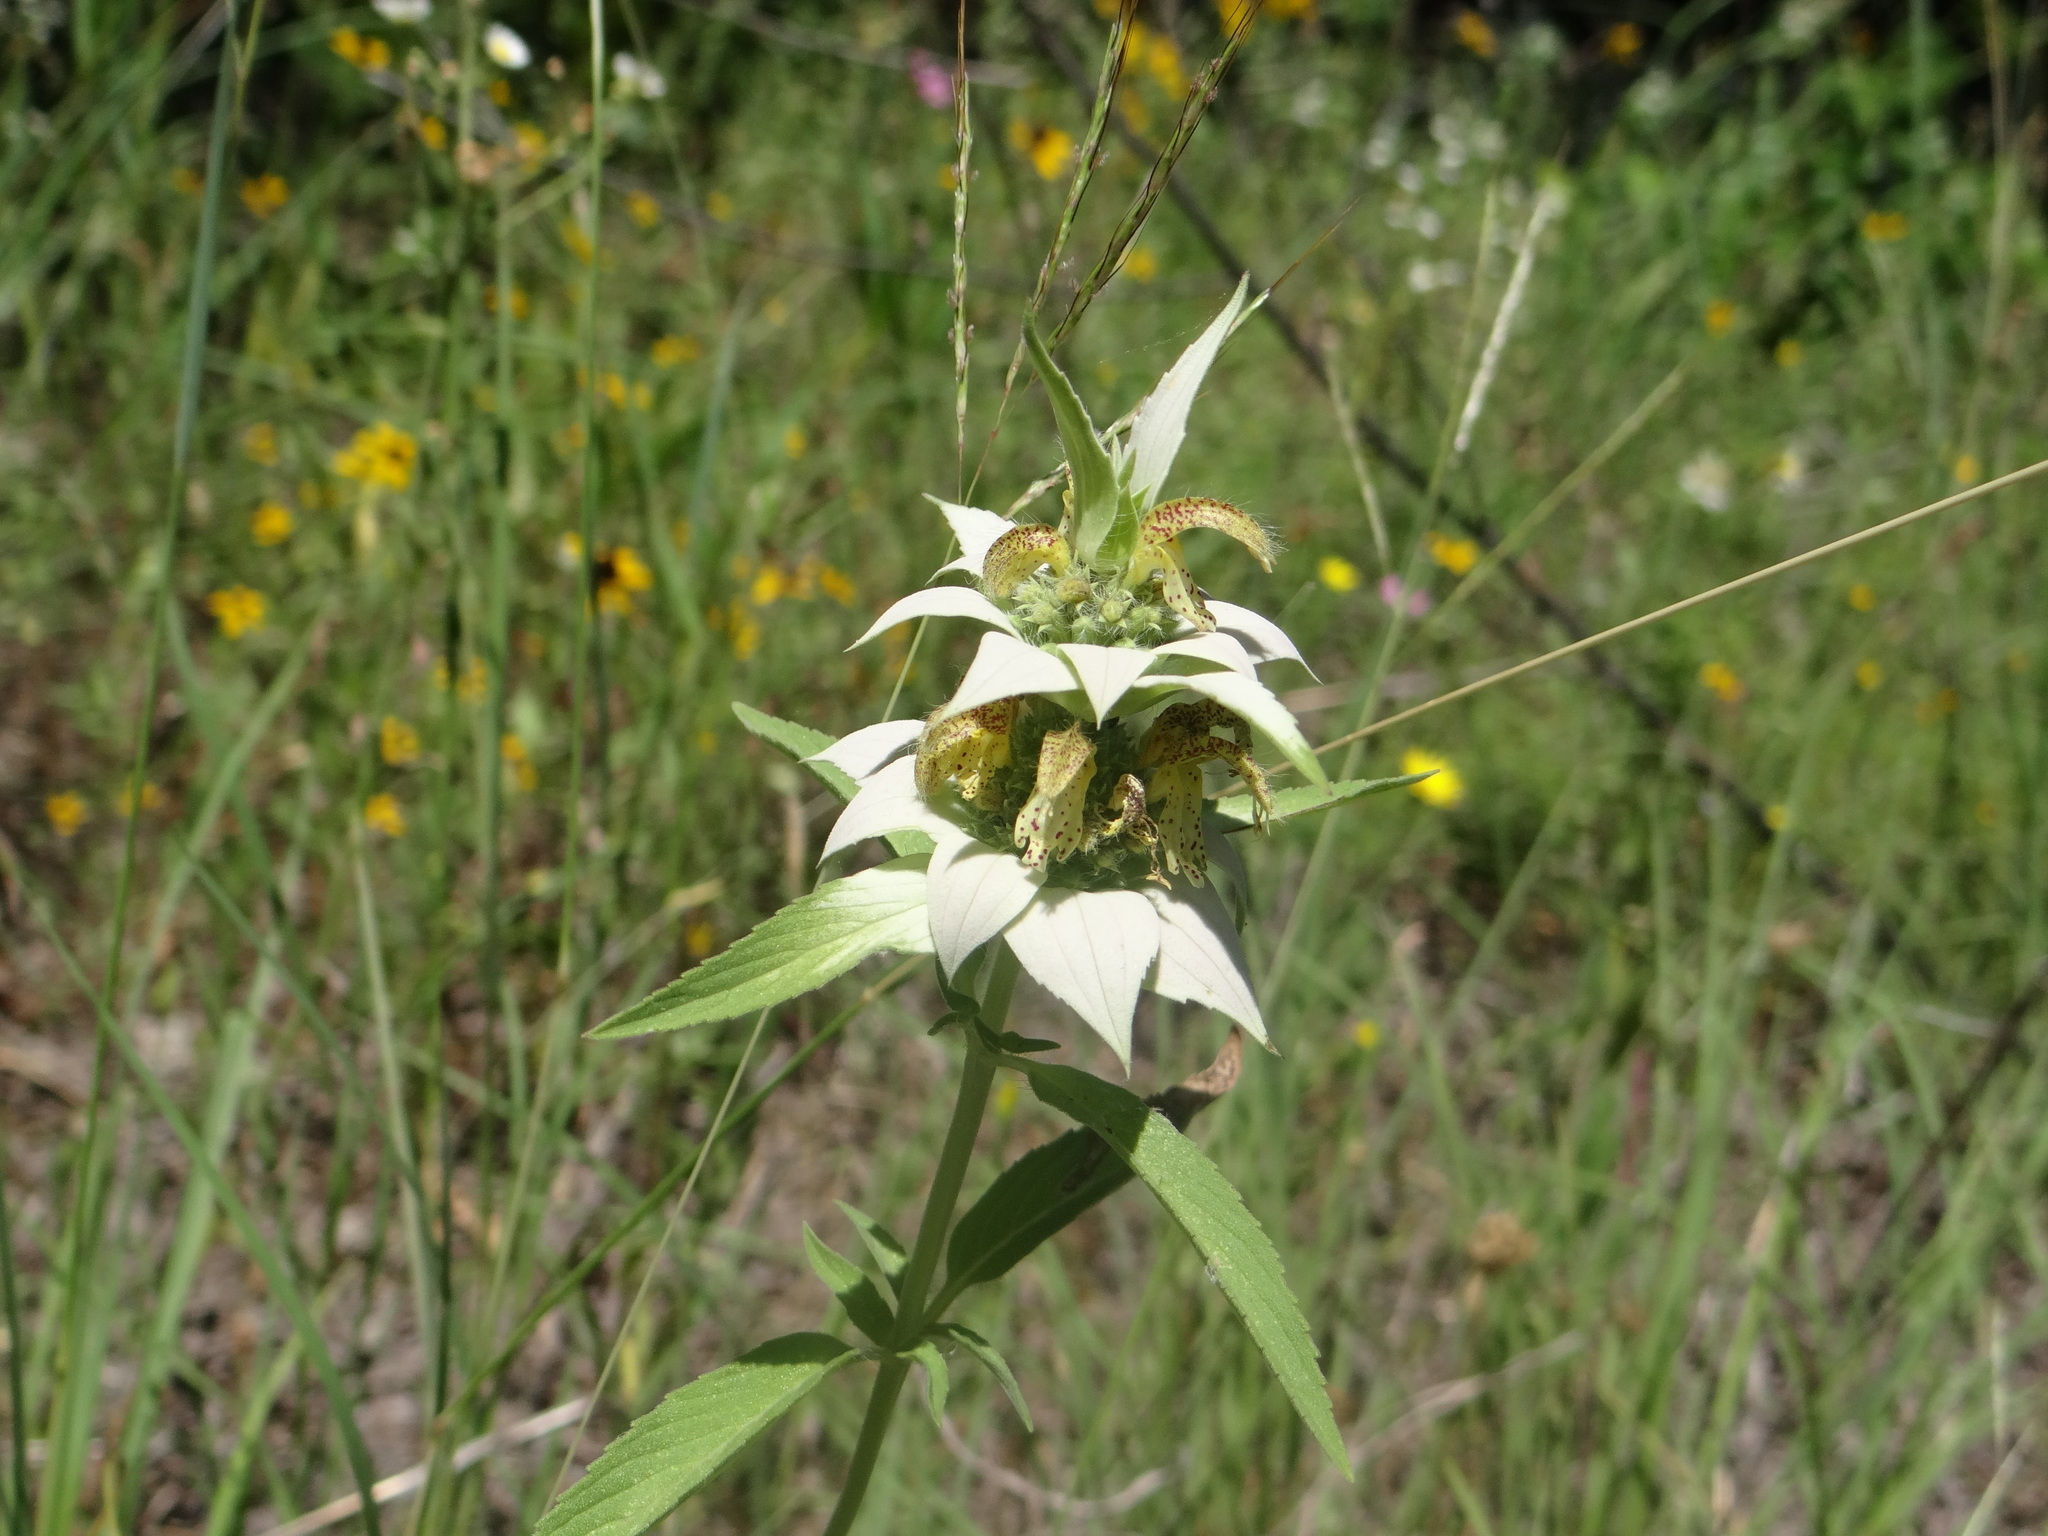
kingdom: Plantae
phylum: Tracheophyta
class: Magnoliopsida
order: Lamiales
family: Lamiaceae
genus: Monarda
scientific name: Monarda punctata
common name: Dotted monarda
